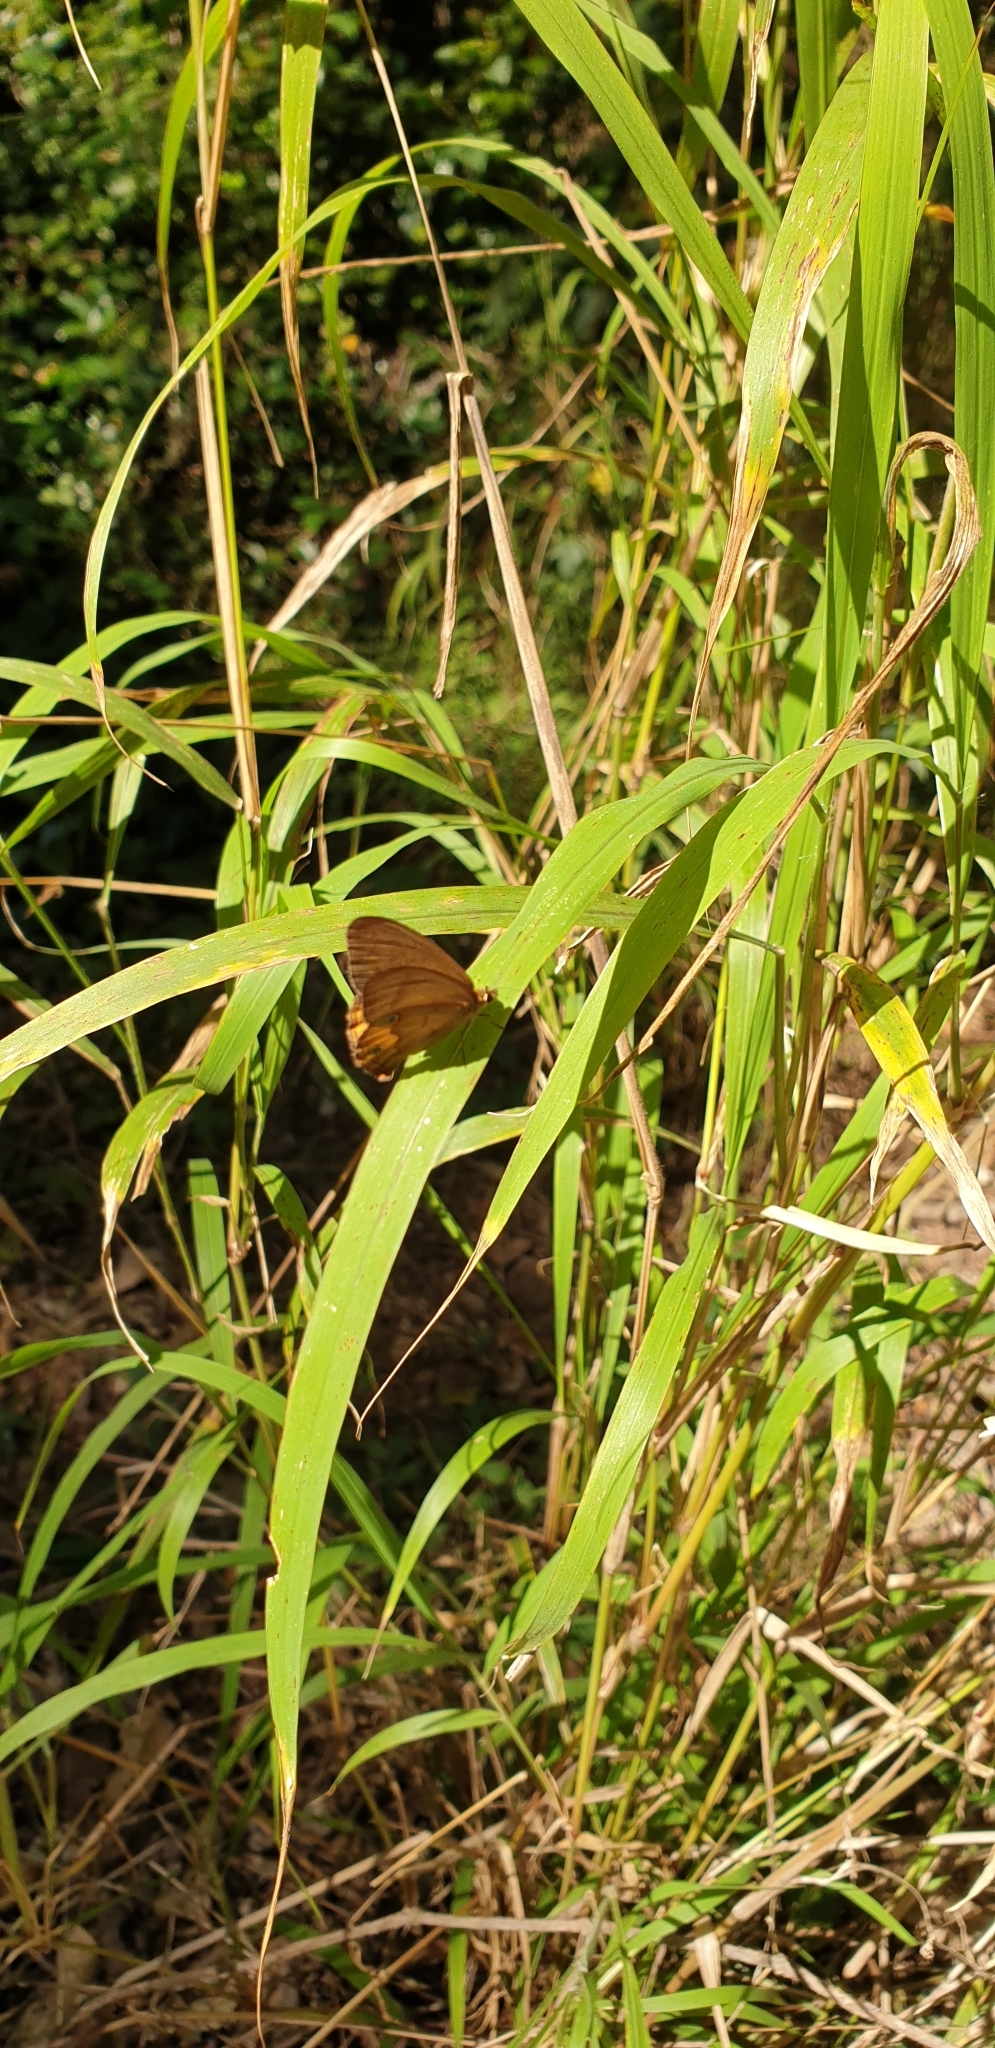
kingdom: Animalia
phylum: Arthropoda
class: Insecta
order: Lepidoptera
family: Nymphalidae
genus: Hypocysta
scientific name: Hypocysta metirius
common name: Brown ringlet
